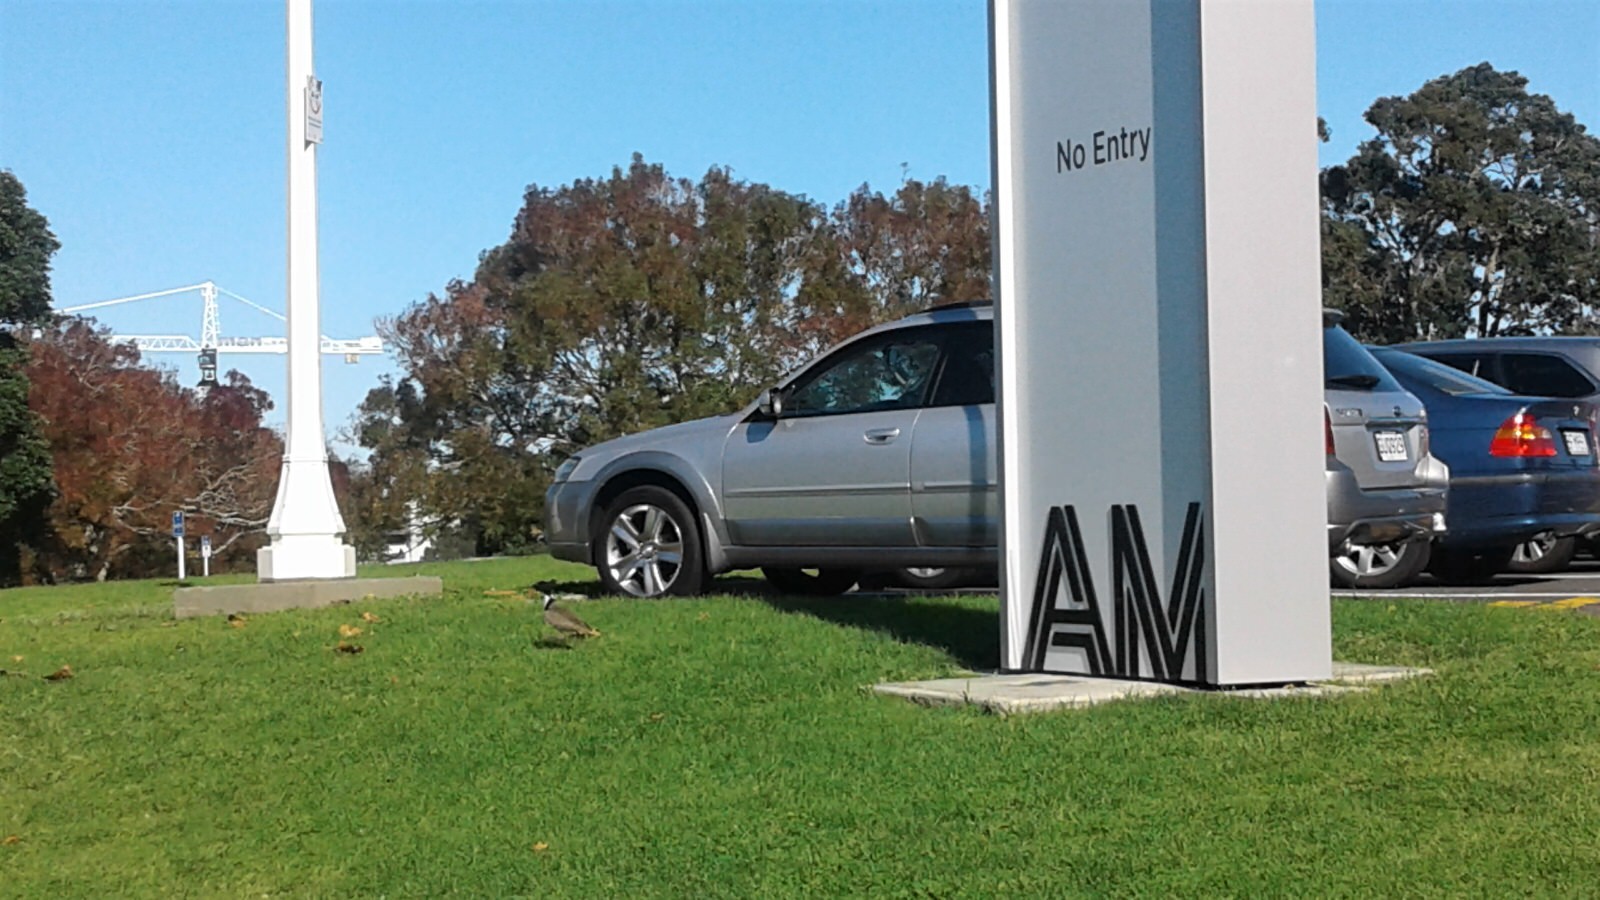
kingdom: Animalia
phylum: Chordata
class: Aves
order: Charadriiformes
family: Charadriidae
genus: Vanellus
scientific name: Vanellus miles
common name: Masked lapwing
